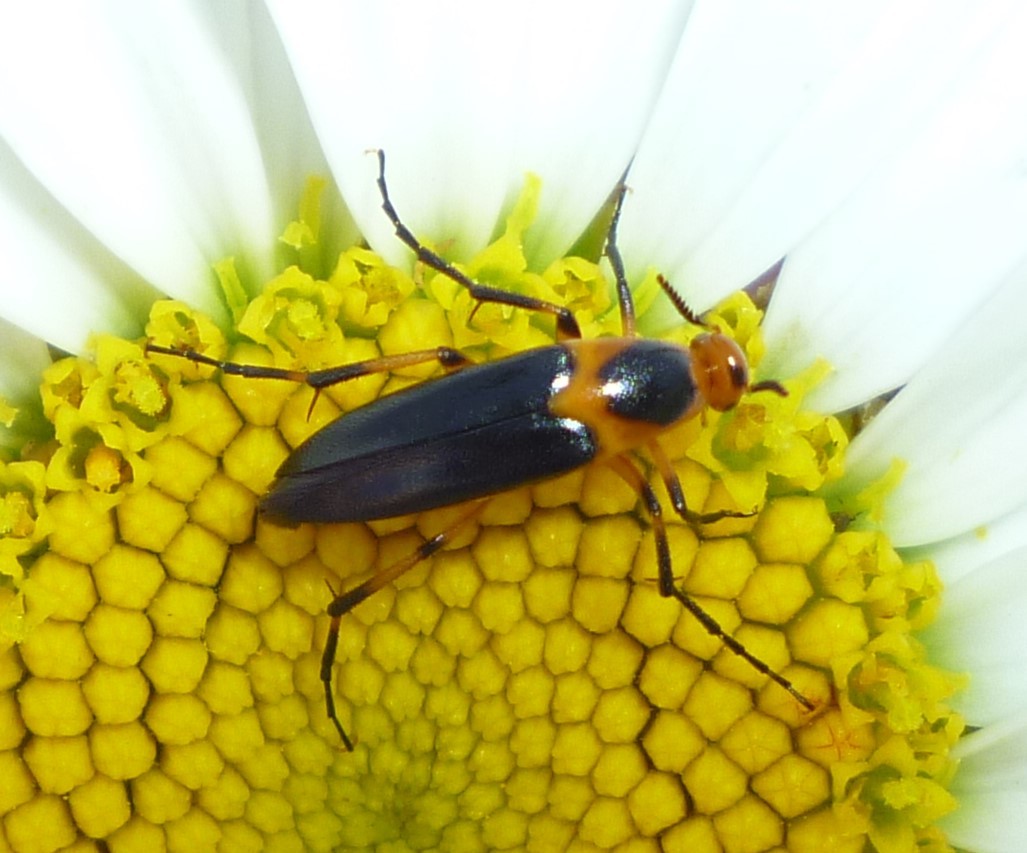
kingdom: Animalia
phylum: Arthropoda
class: Insecta
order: Coleoptera
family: Ripiphoridae
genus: Macrosiagon
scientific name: Macrosiagon limbatum
